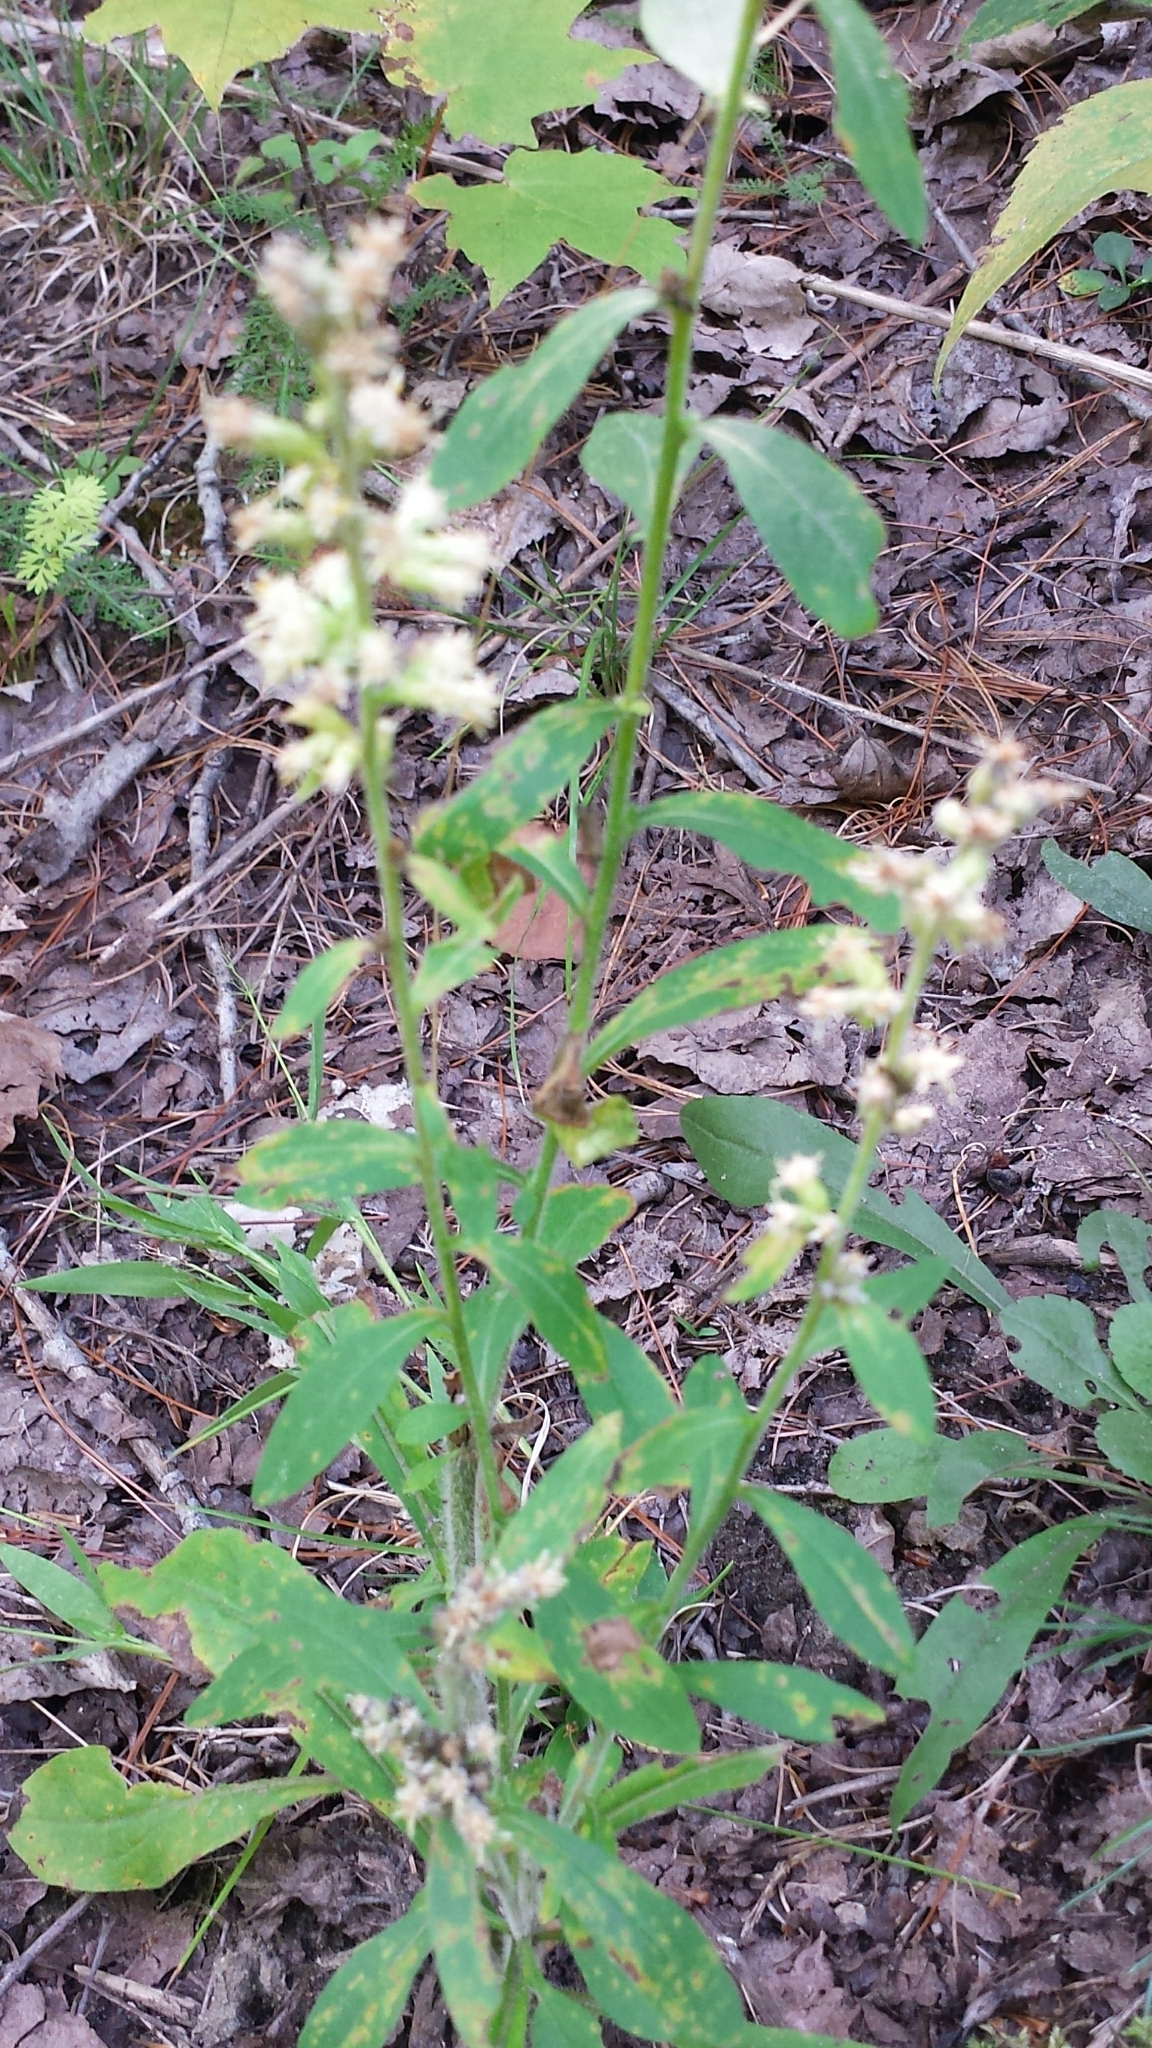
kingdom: Plantae
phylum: Tracheophyta
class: Magnoliopsida
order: Asterales
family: Asteraceae
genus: Solidago
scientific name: Solidago bicolor
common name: Silverrod
